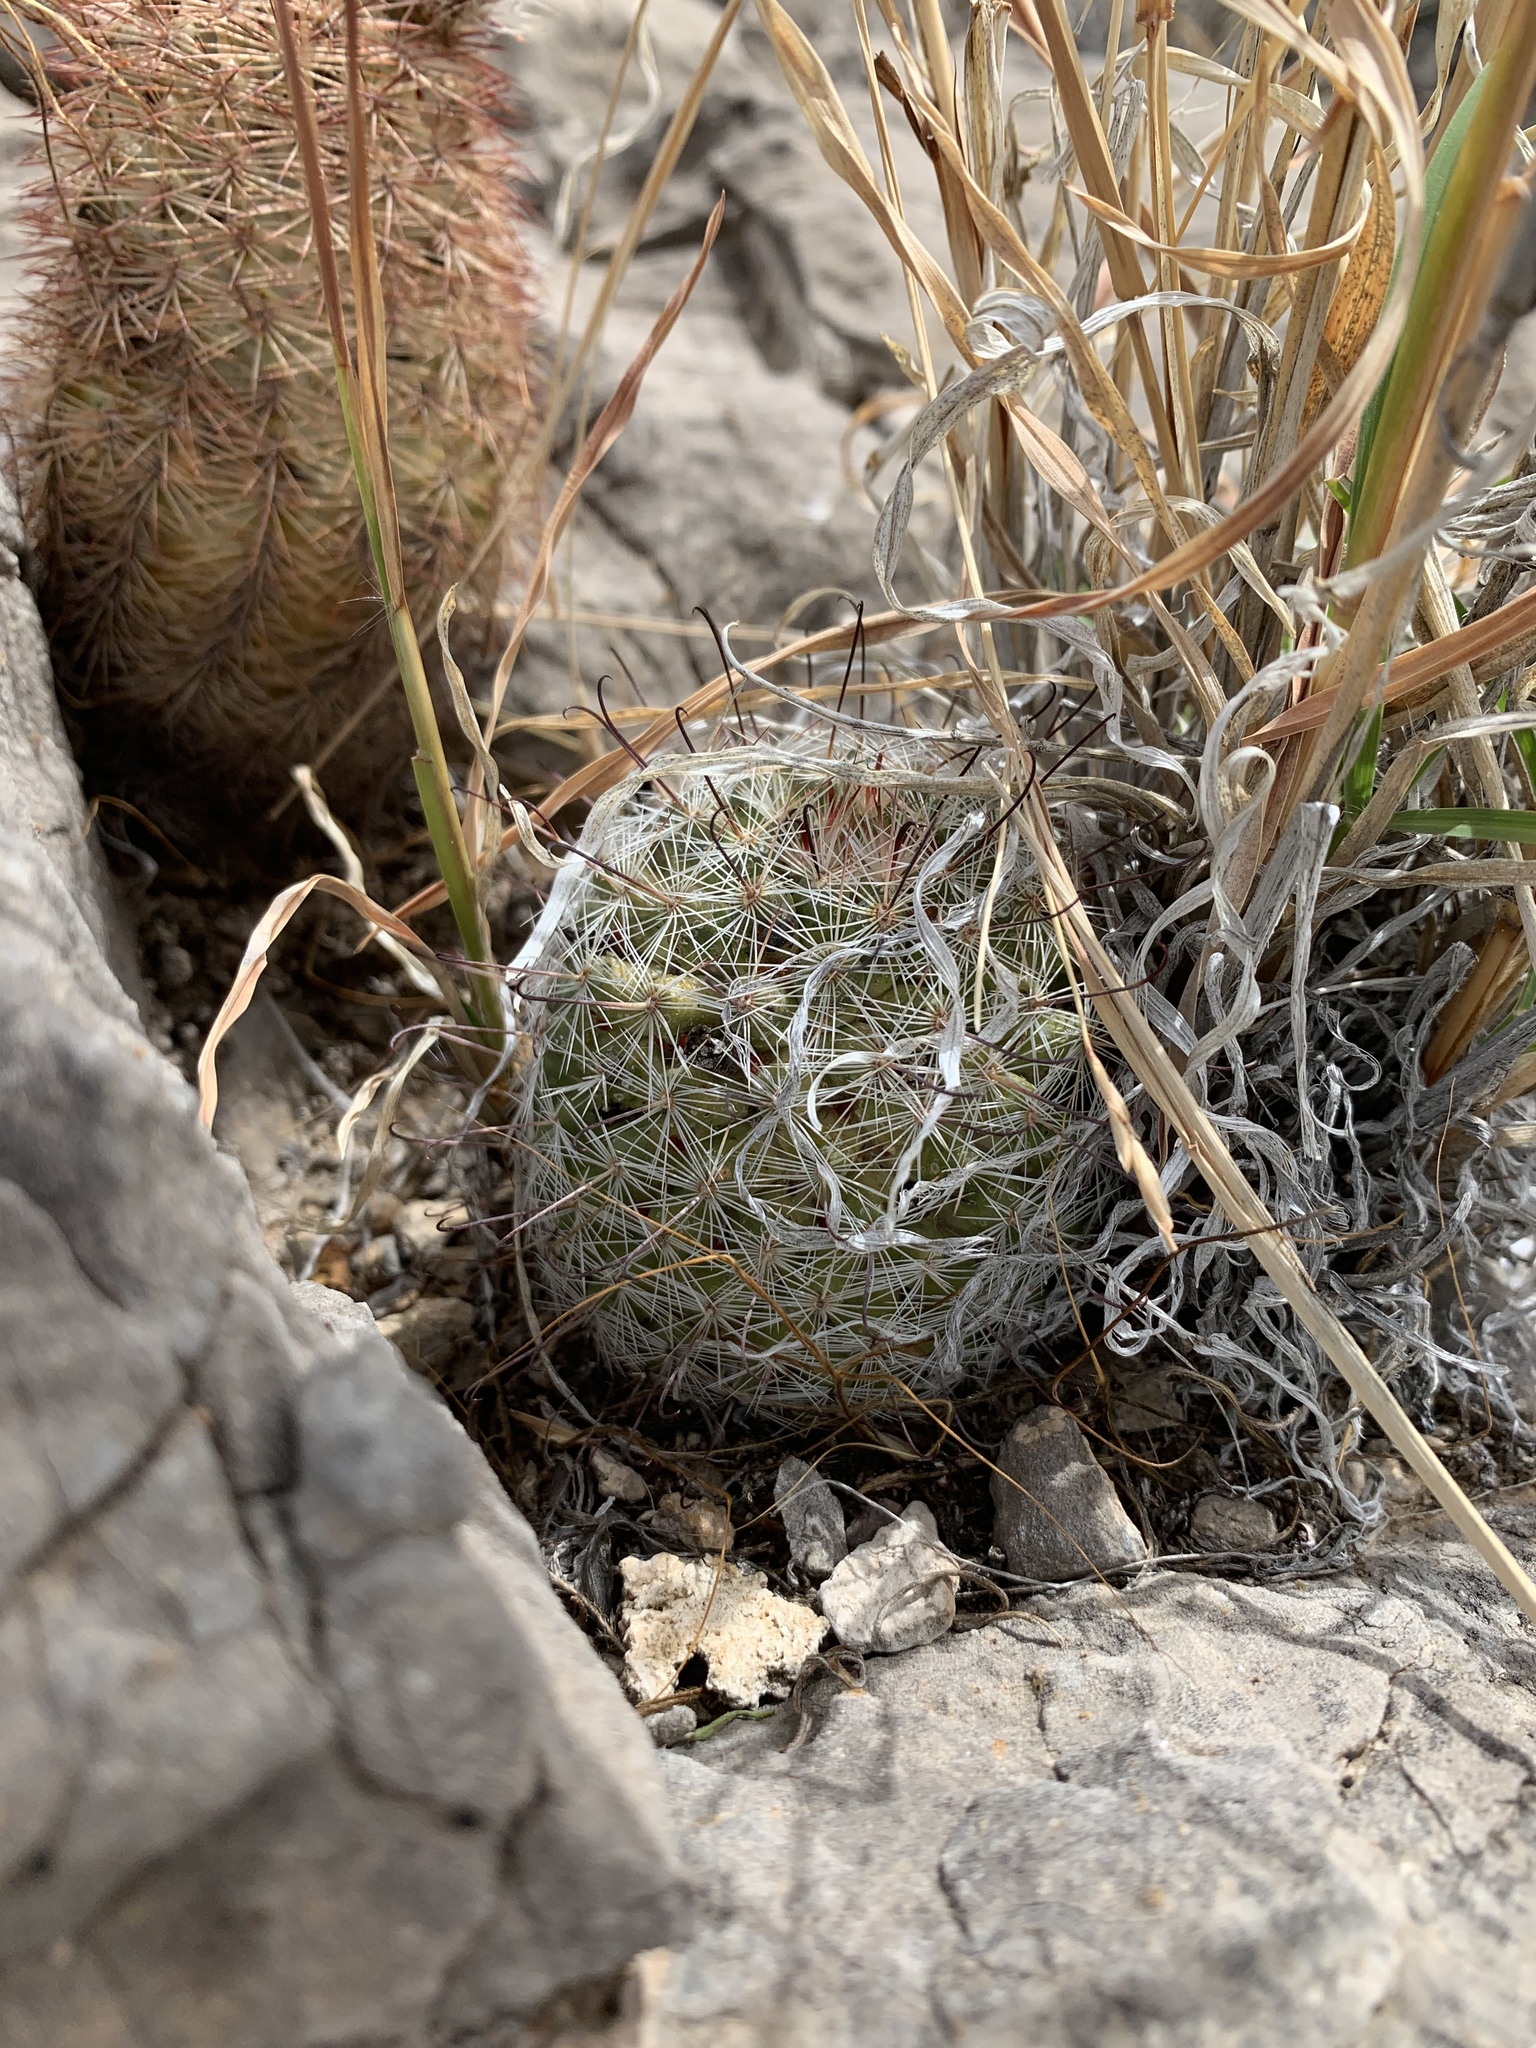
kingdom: Plantae
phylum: Tracheophyta
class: Magnoliopsida
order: Caryophyllales
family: Cactaceae
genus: Cochemiea
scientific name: Cochemiea grahamii
